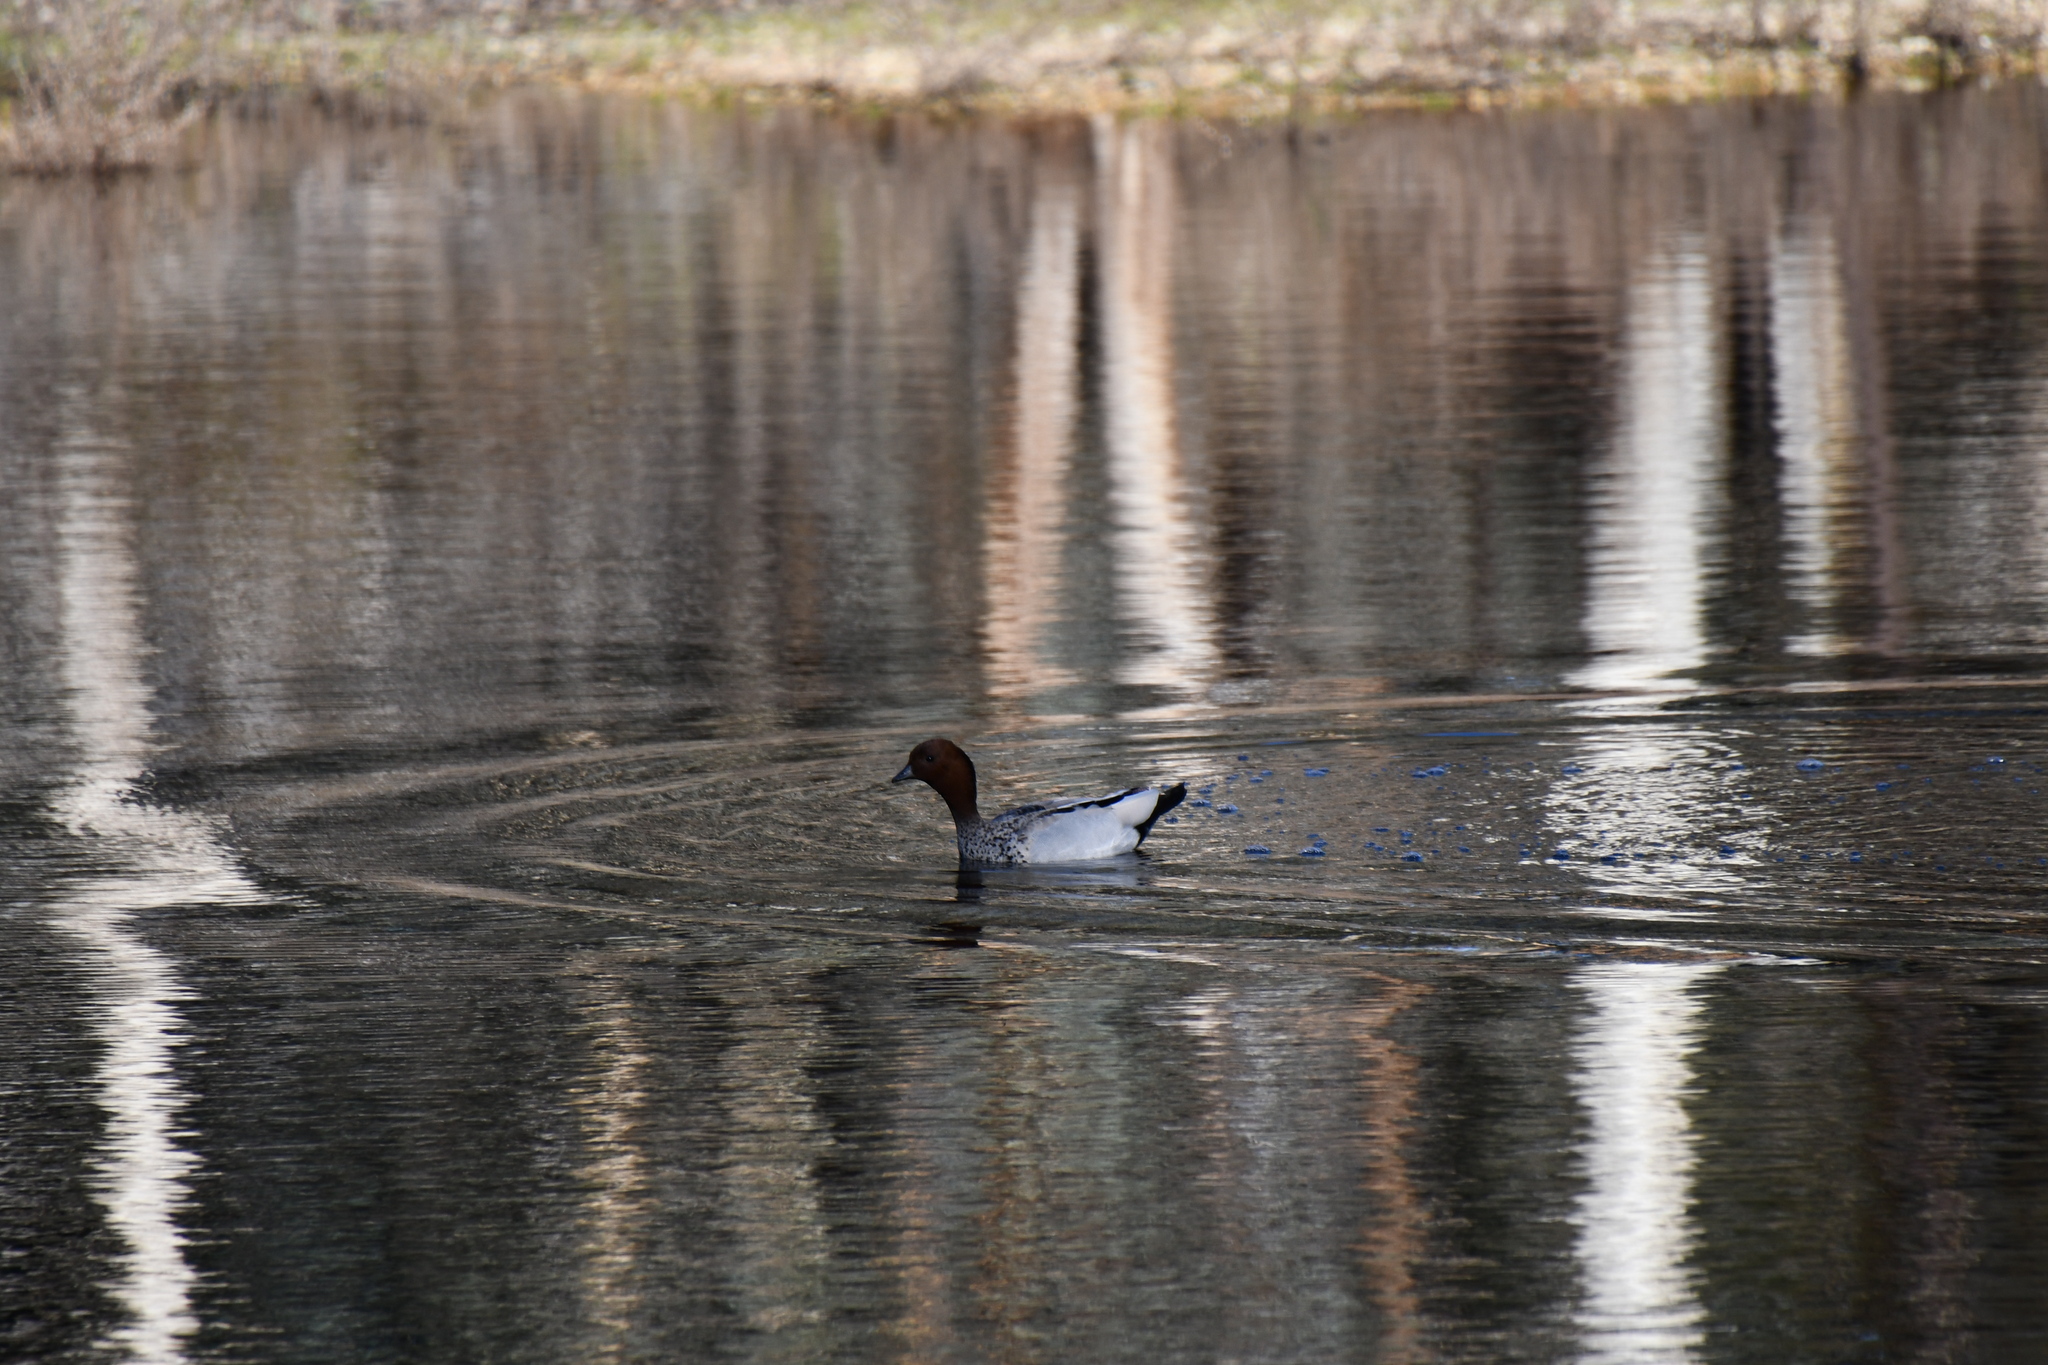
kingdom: Animalia
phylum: Chordata
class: Aves
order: Anseriformes
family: Anatidae
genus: Chenonetta
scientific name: Chenonetta jubata
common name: Maned duck
